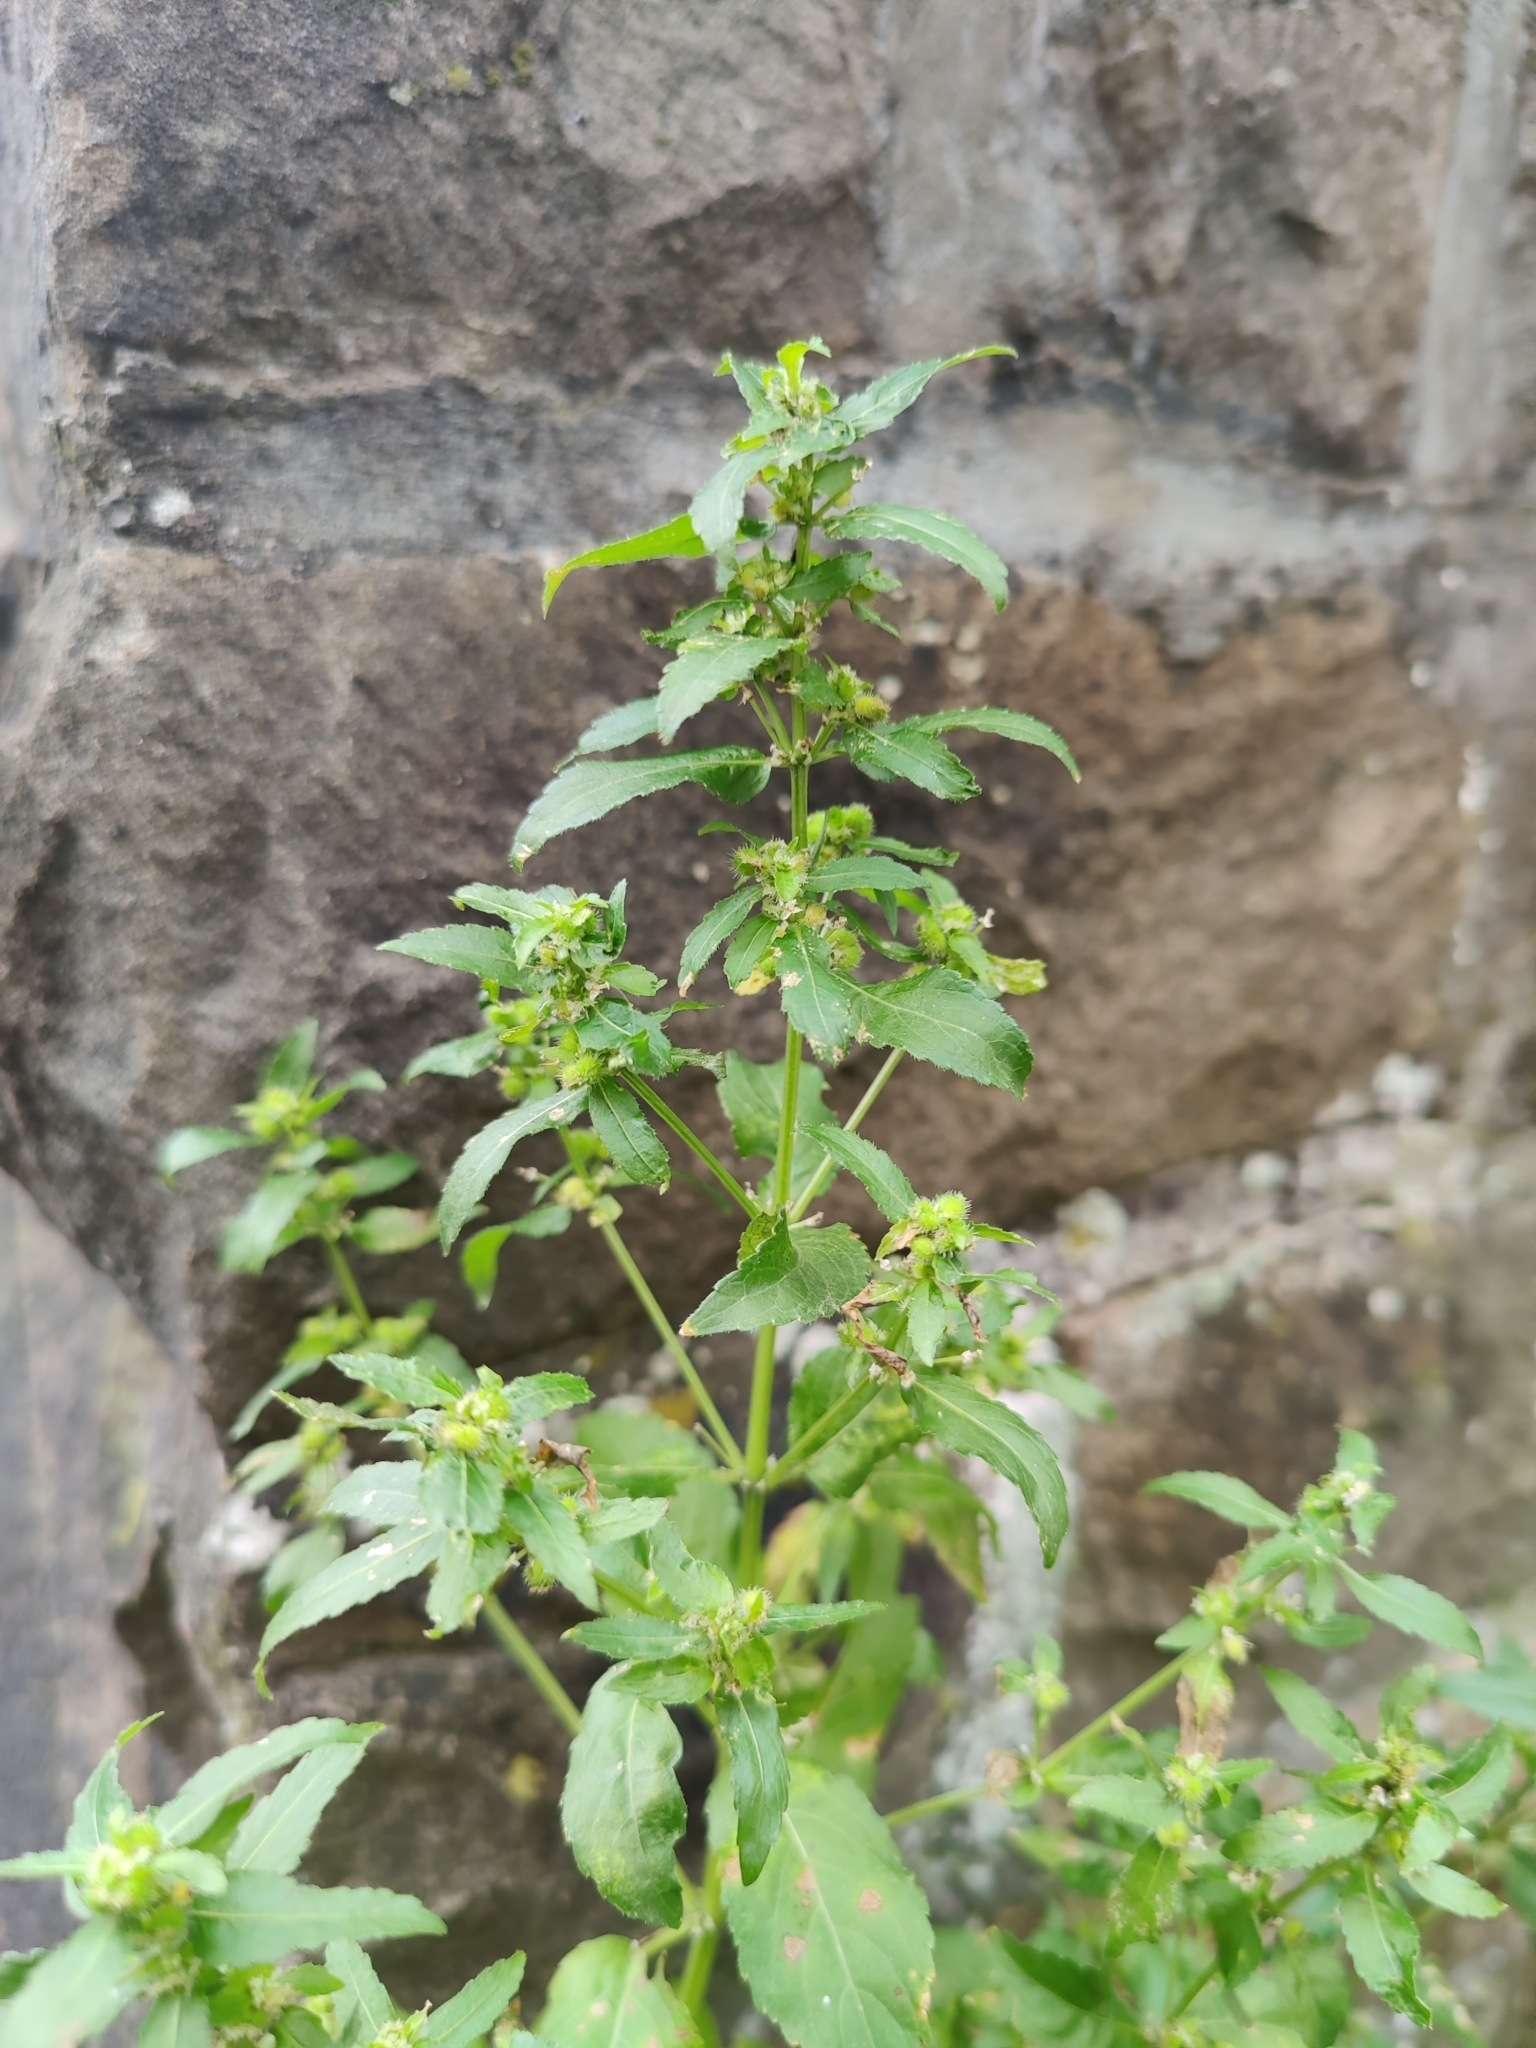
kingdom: Plantae
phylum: Tracheophyta
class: Magnoliopsida
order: Malpighiales
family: Euphorbiaceae
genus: Mercurialis
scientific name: Mercurialis annua
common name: Annual mercury
